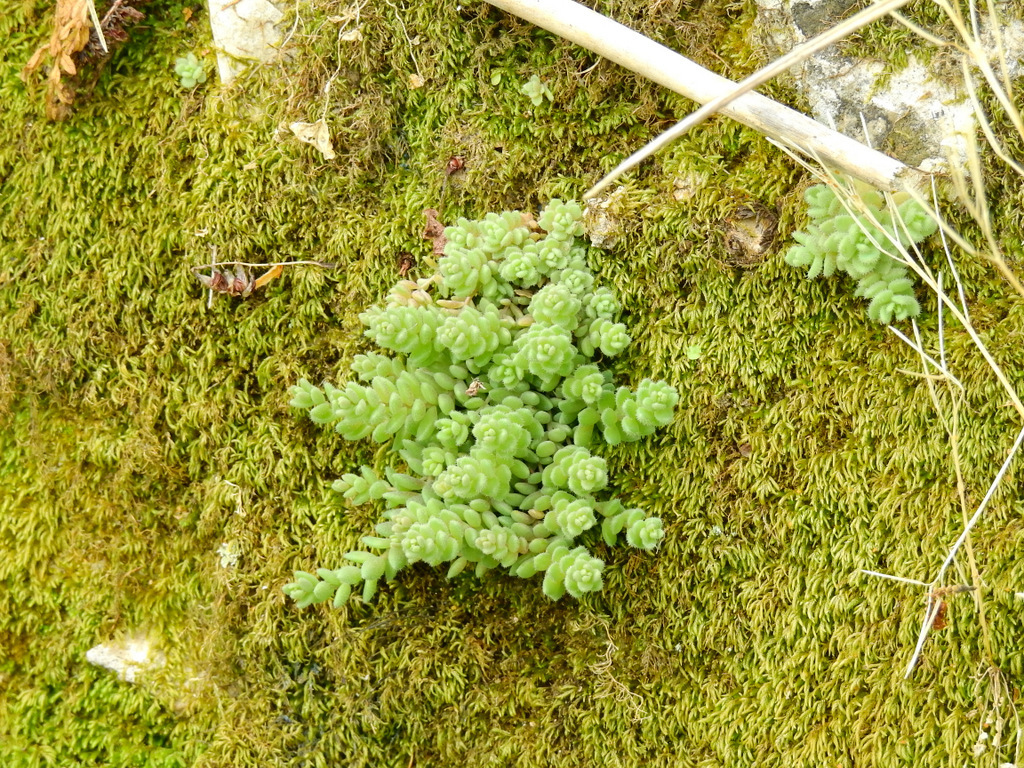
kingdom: Plantae
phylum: Tracheophyta
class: Magnoliopsida
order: Saxifragales
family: Crassulaceae
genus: Sedum
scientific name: Sedum dasyphyllum
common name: Thick-leaf stonecrop
